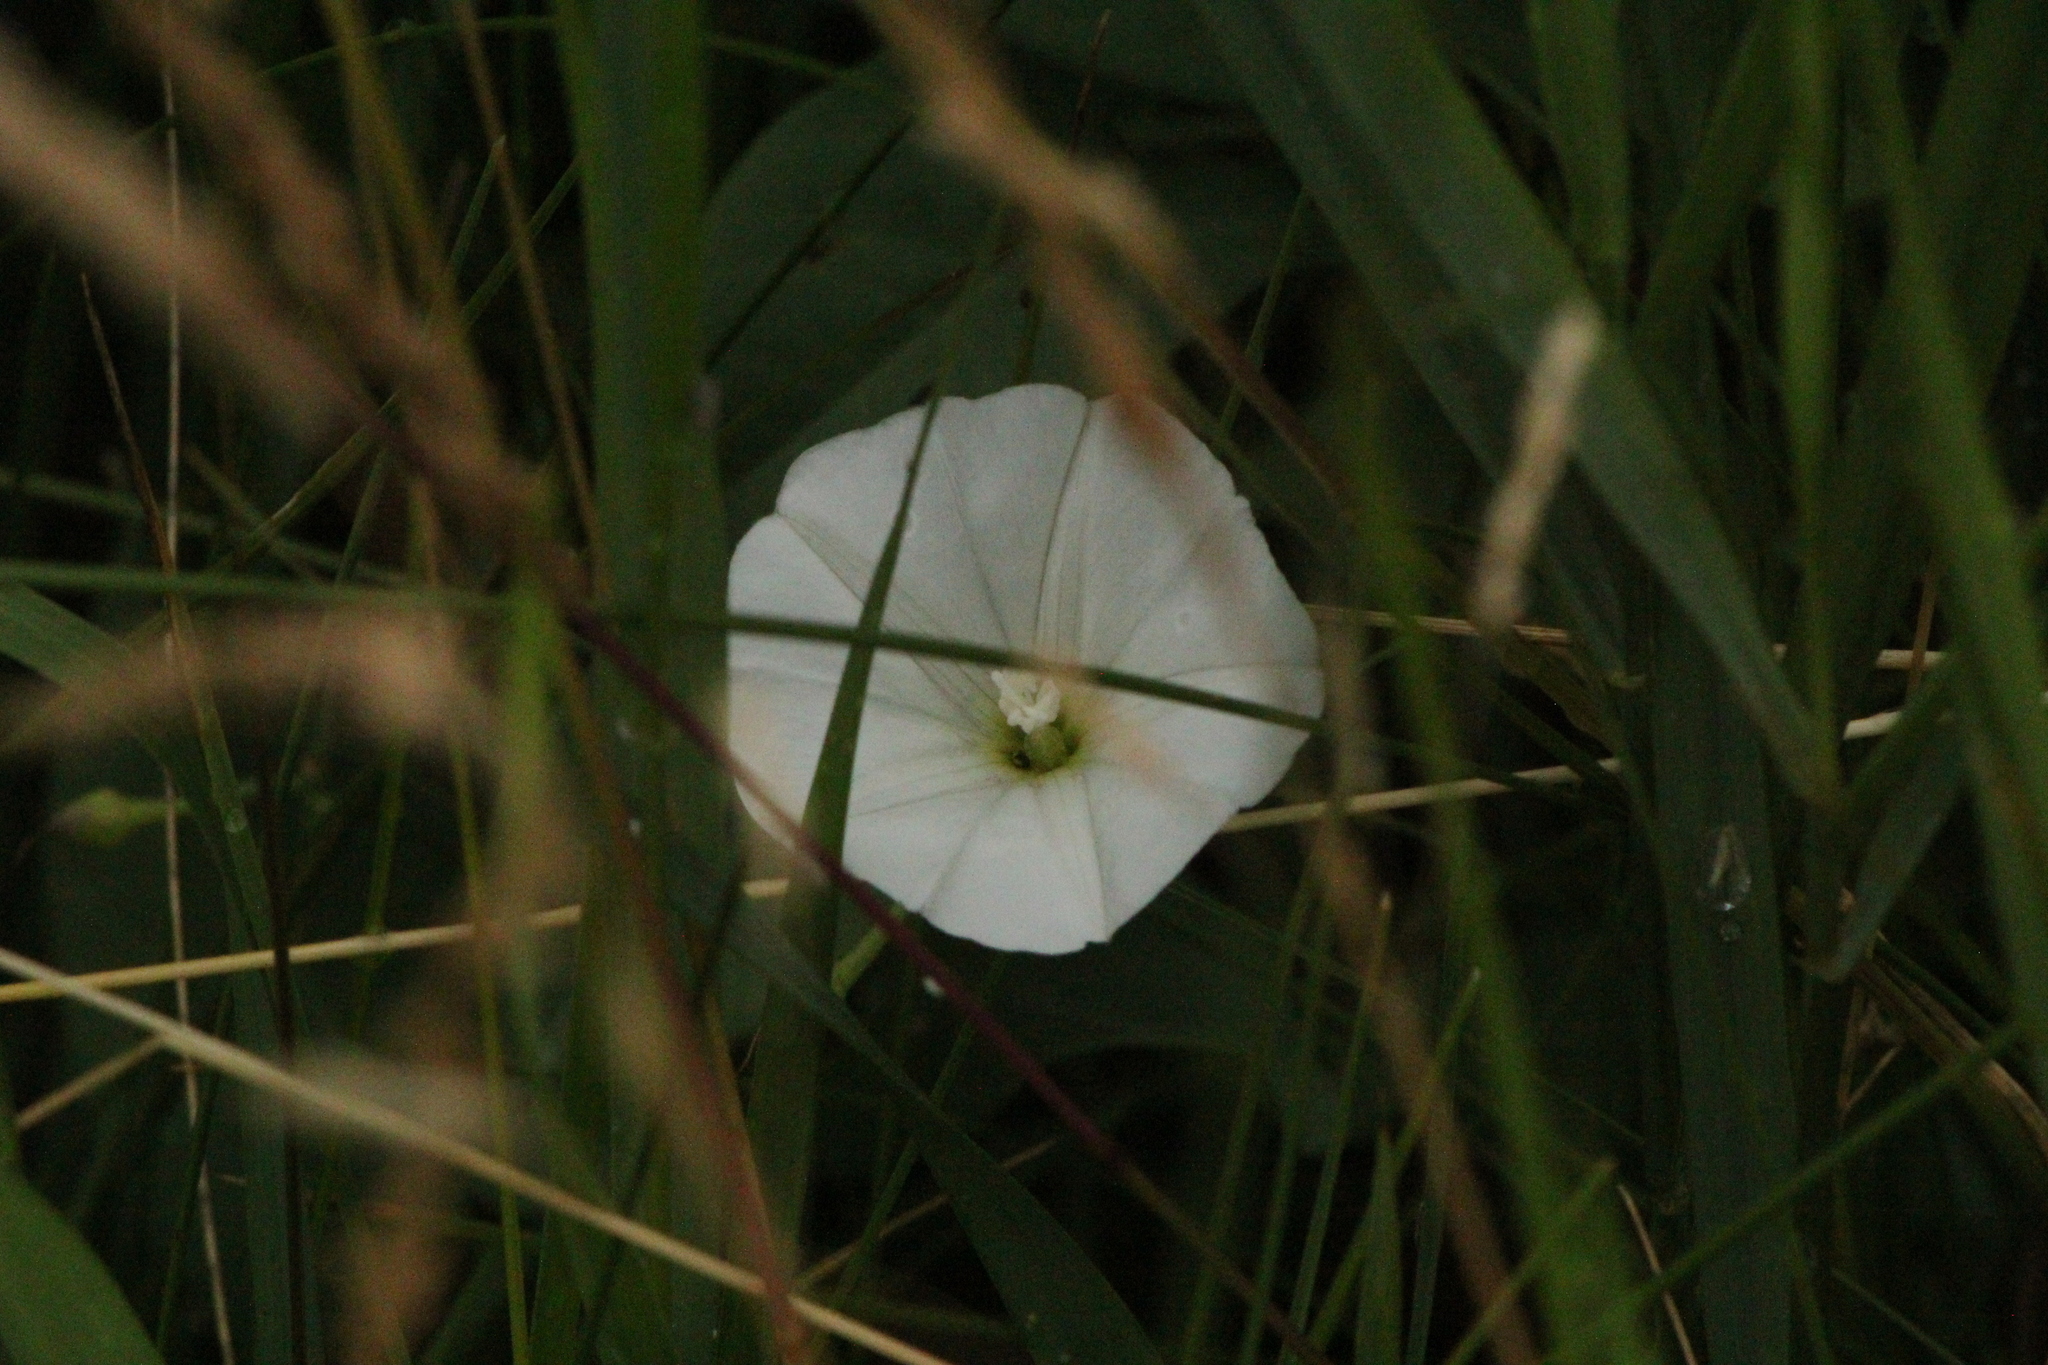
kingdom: Plantae
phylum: Tracheophyta
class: Magnoliopsida
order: Solanales
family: Convolvulaceae
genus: Convolvulus
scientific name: Convolvulus arvensis
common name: Field bindweed
